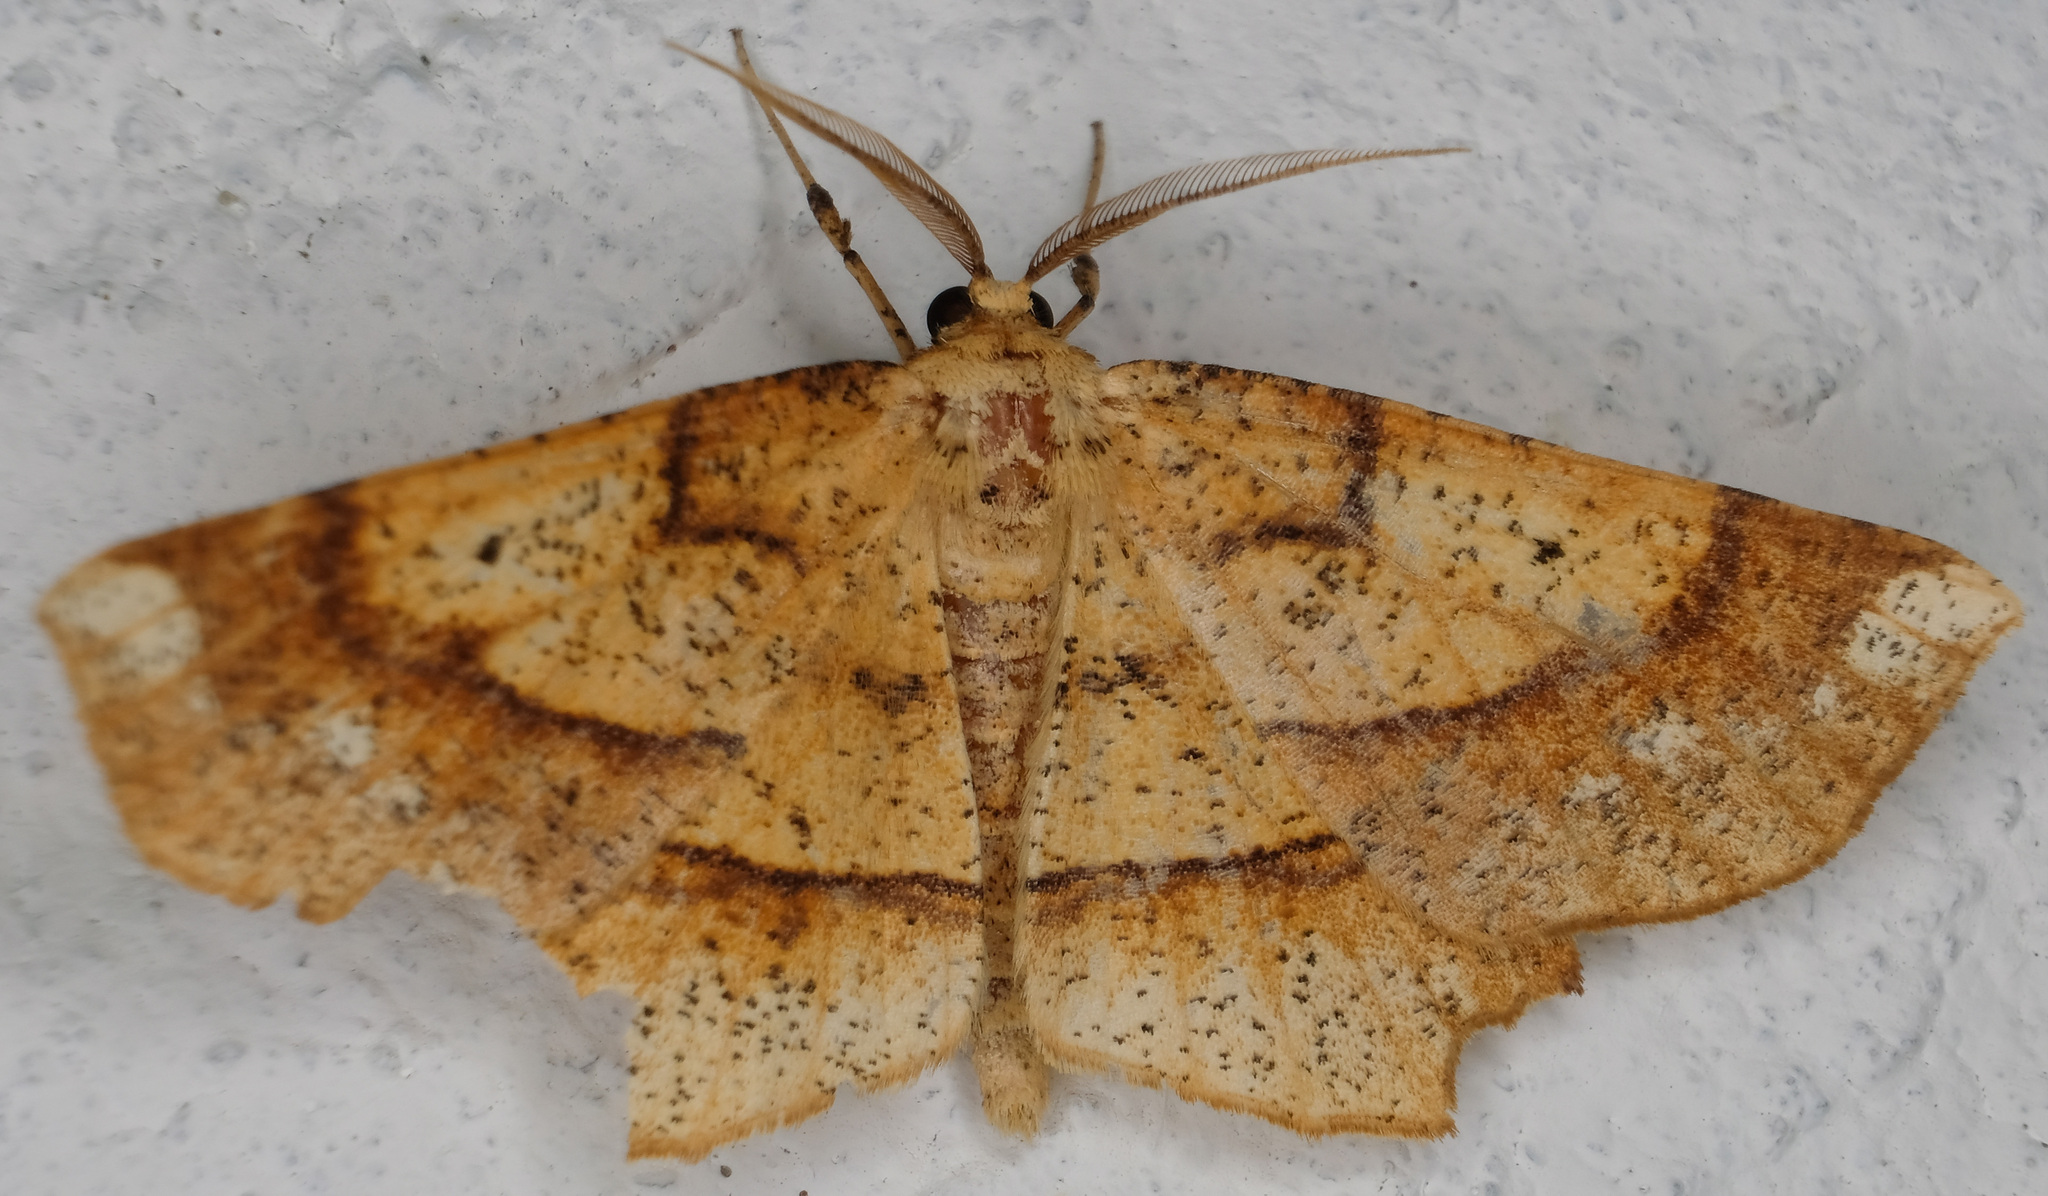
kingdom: Animalia
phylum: Arthropoda
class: Insecta
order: Lepidoptera
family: Geometridae
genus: Euchlaena
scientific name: Euchlaena amoenaria
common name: Deep yellow euchlaena
